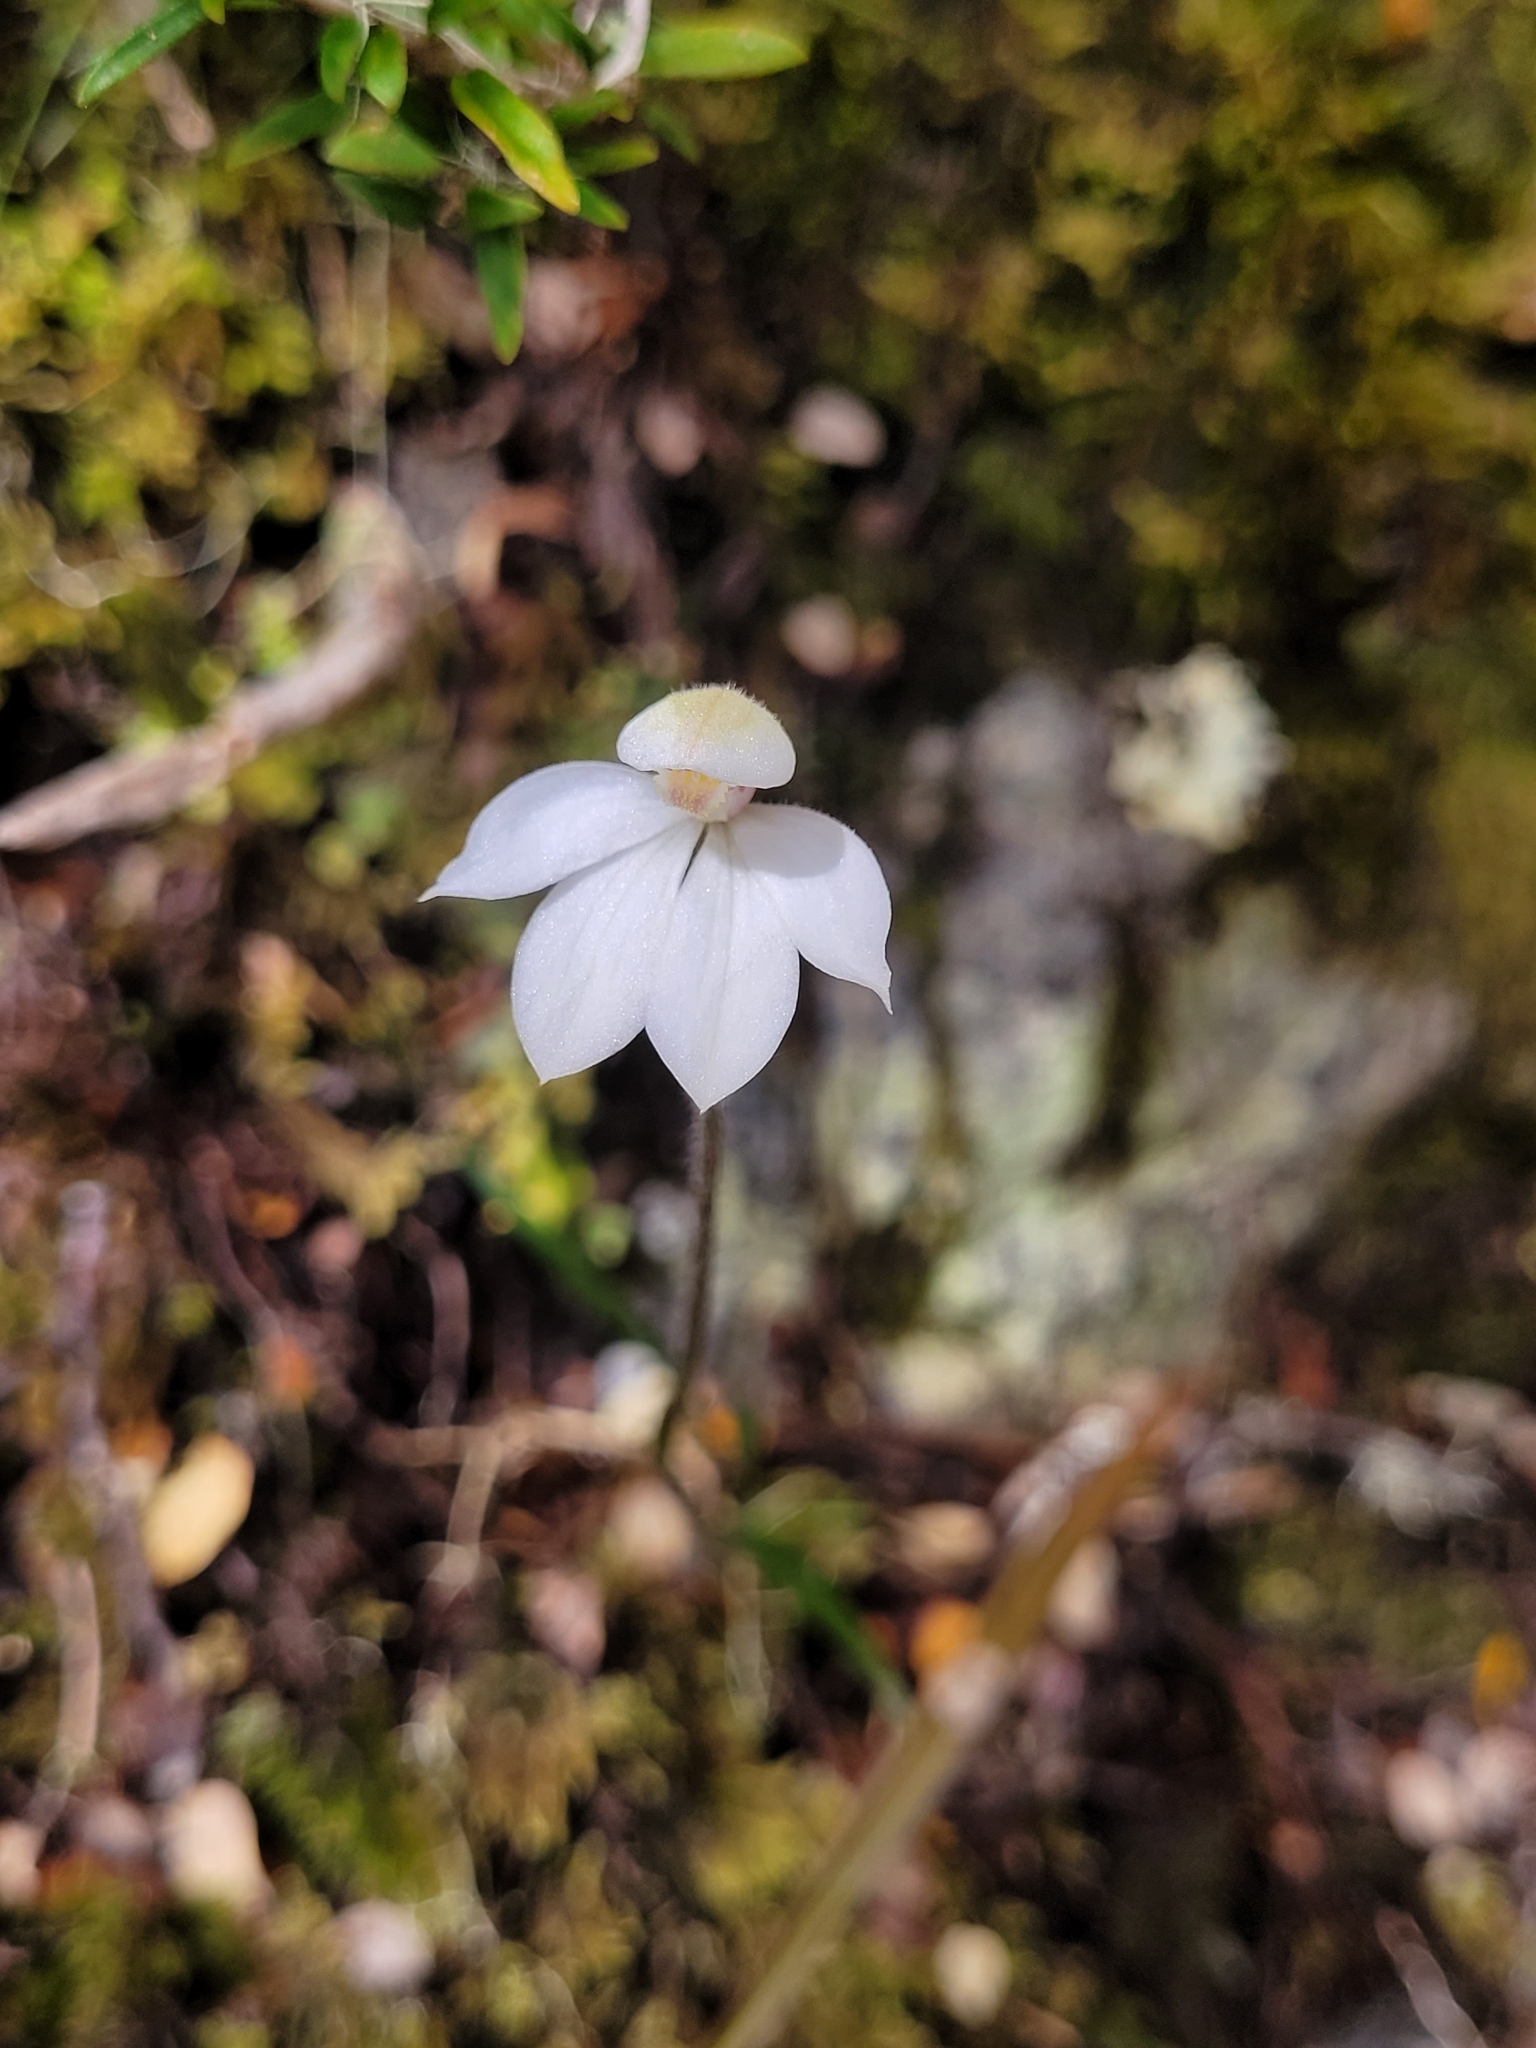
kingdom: Plantae
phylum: Tracheophyta
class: Liliopsida
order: Asparagales
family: Orchidaceae
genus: Caladenia
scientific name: Caladenia lyallii
